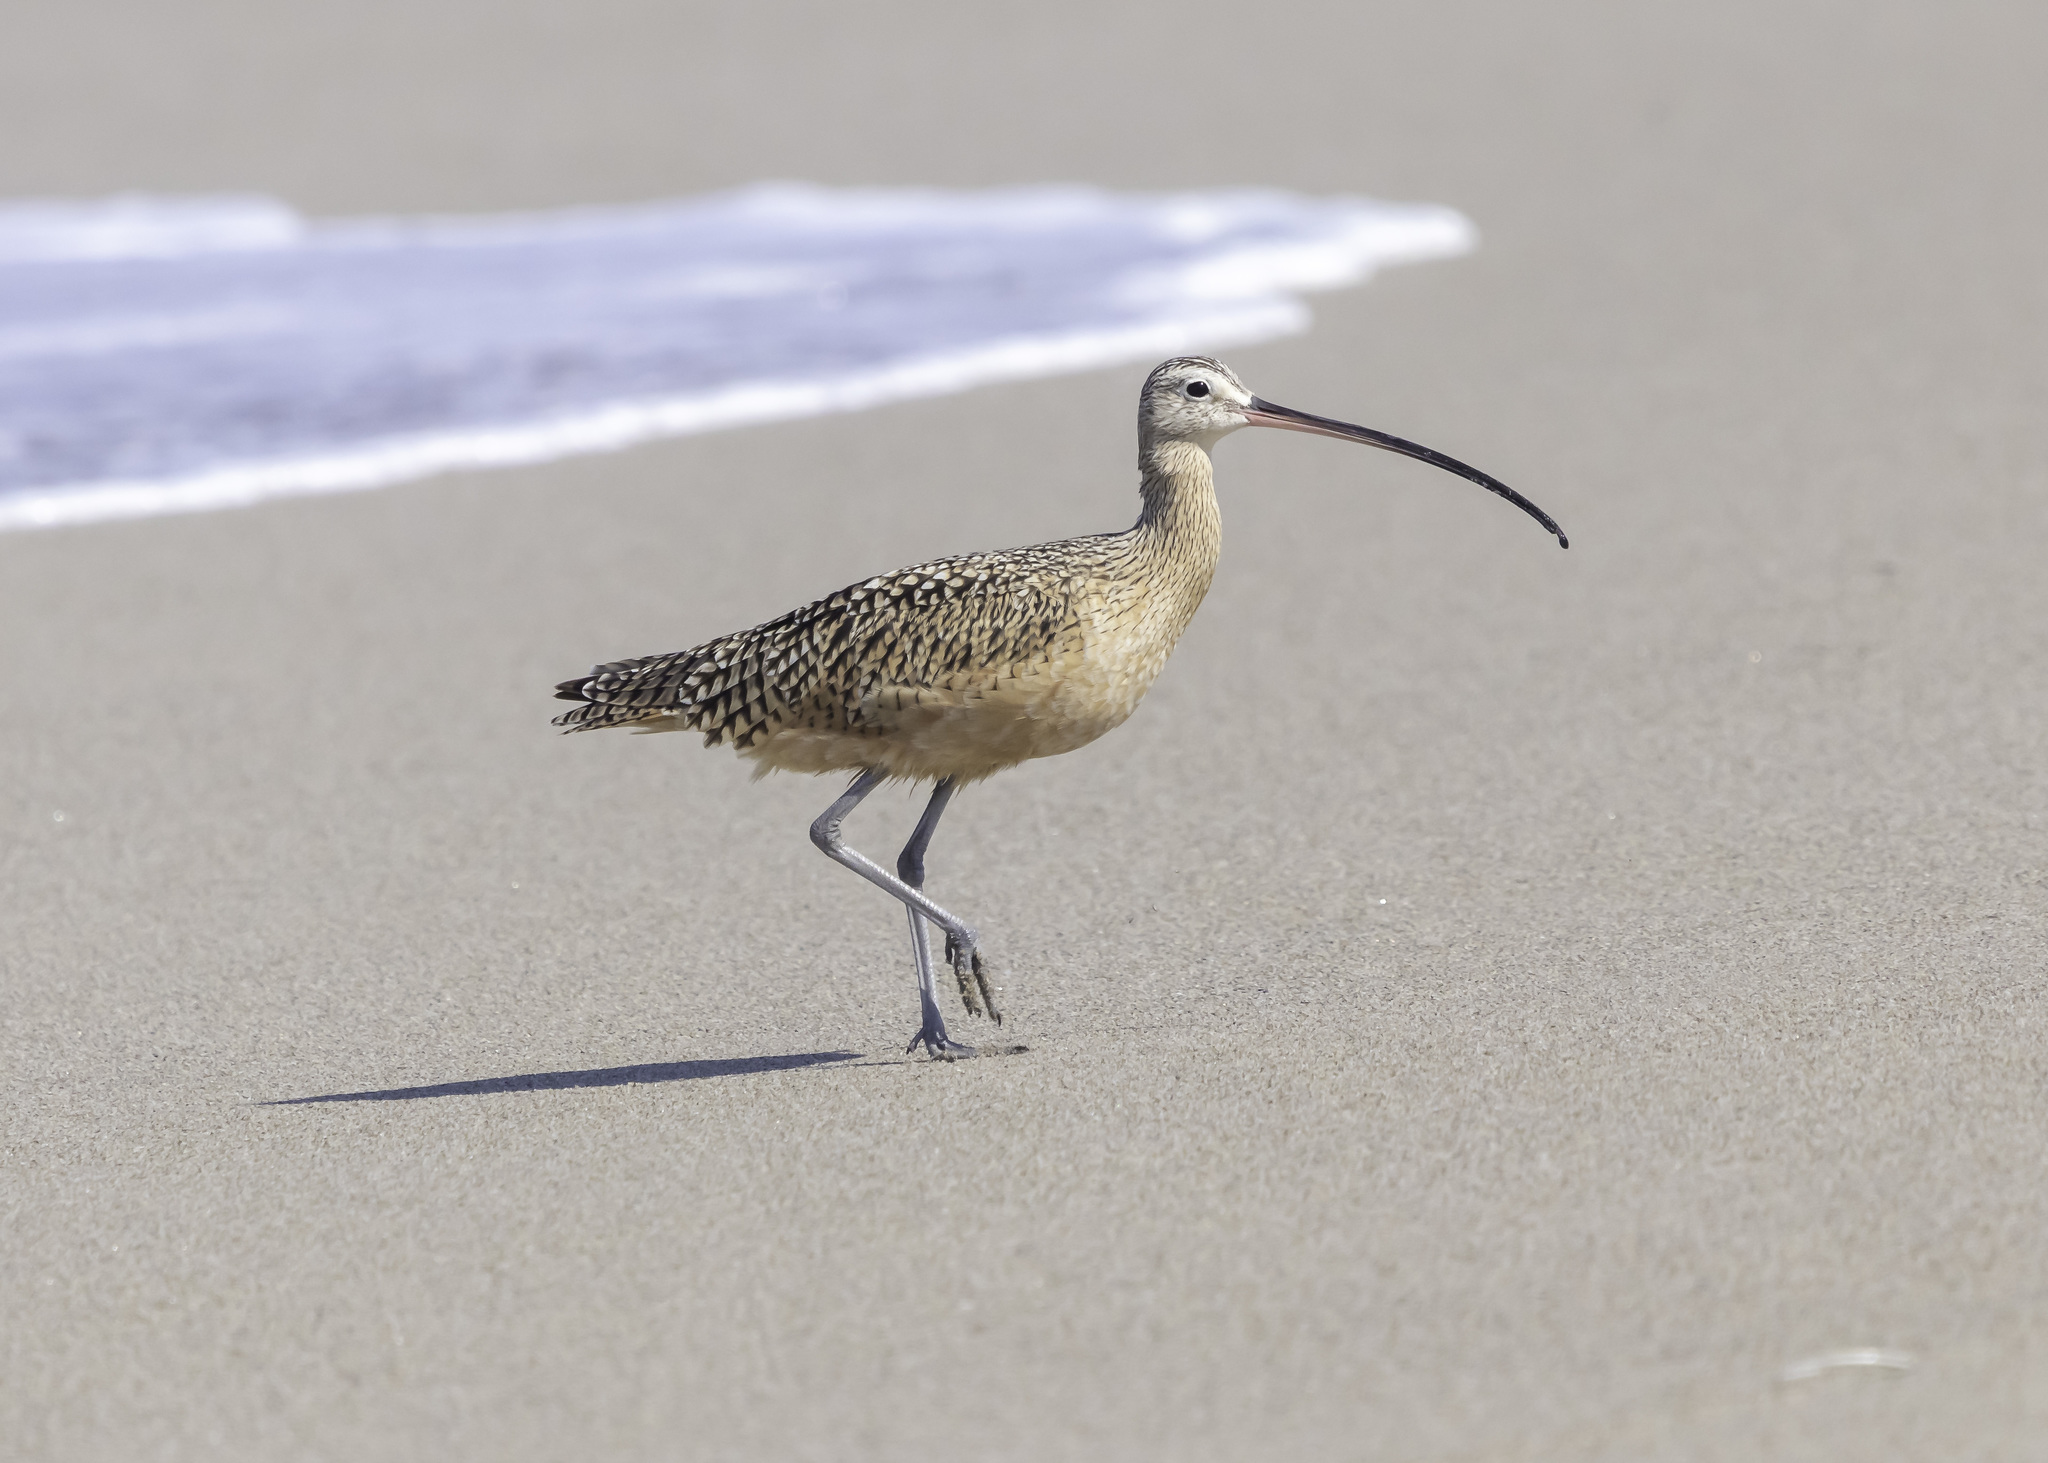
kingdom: Animalia
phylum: Chordata
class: Aves
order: Charadriiformes
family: Scolopacidae
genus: Numenius
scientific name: Numenius americanus
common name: Long-billed curlew
